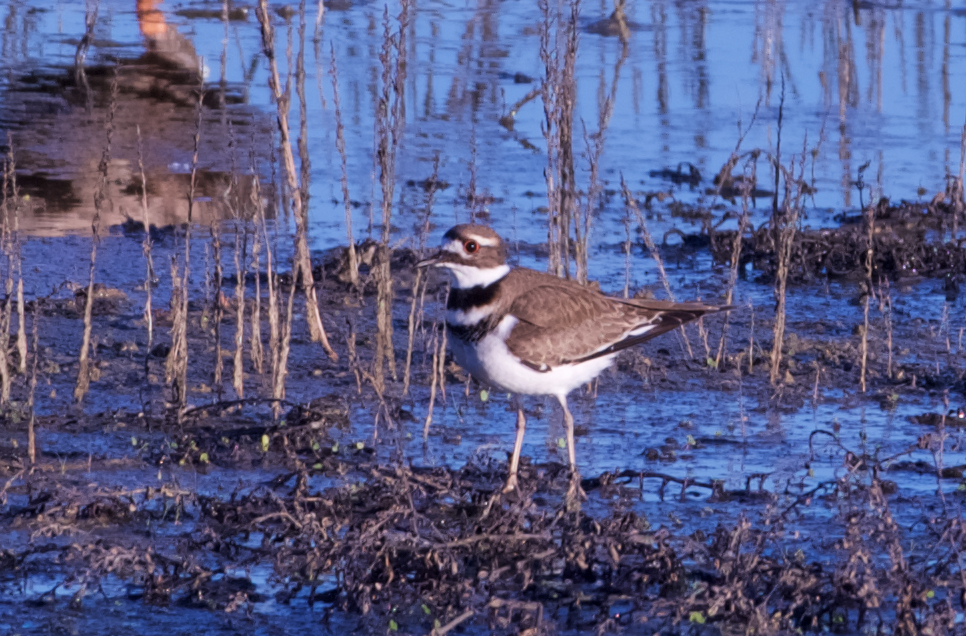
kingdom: Animalia
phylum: Chordata
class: Aves
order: Charadriiformes
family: Charadriidae
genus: Charadrius
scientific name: Charadrius vociferus
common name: Killdeer
